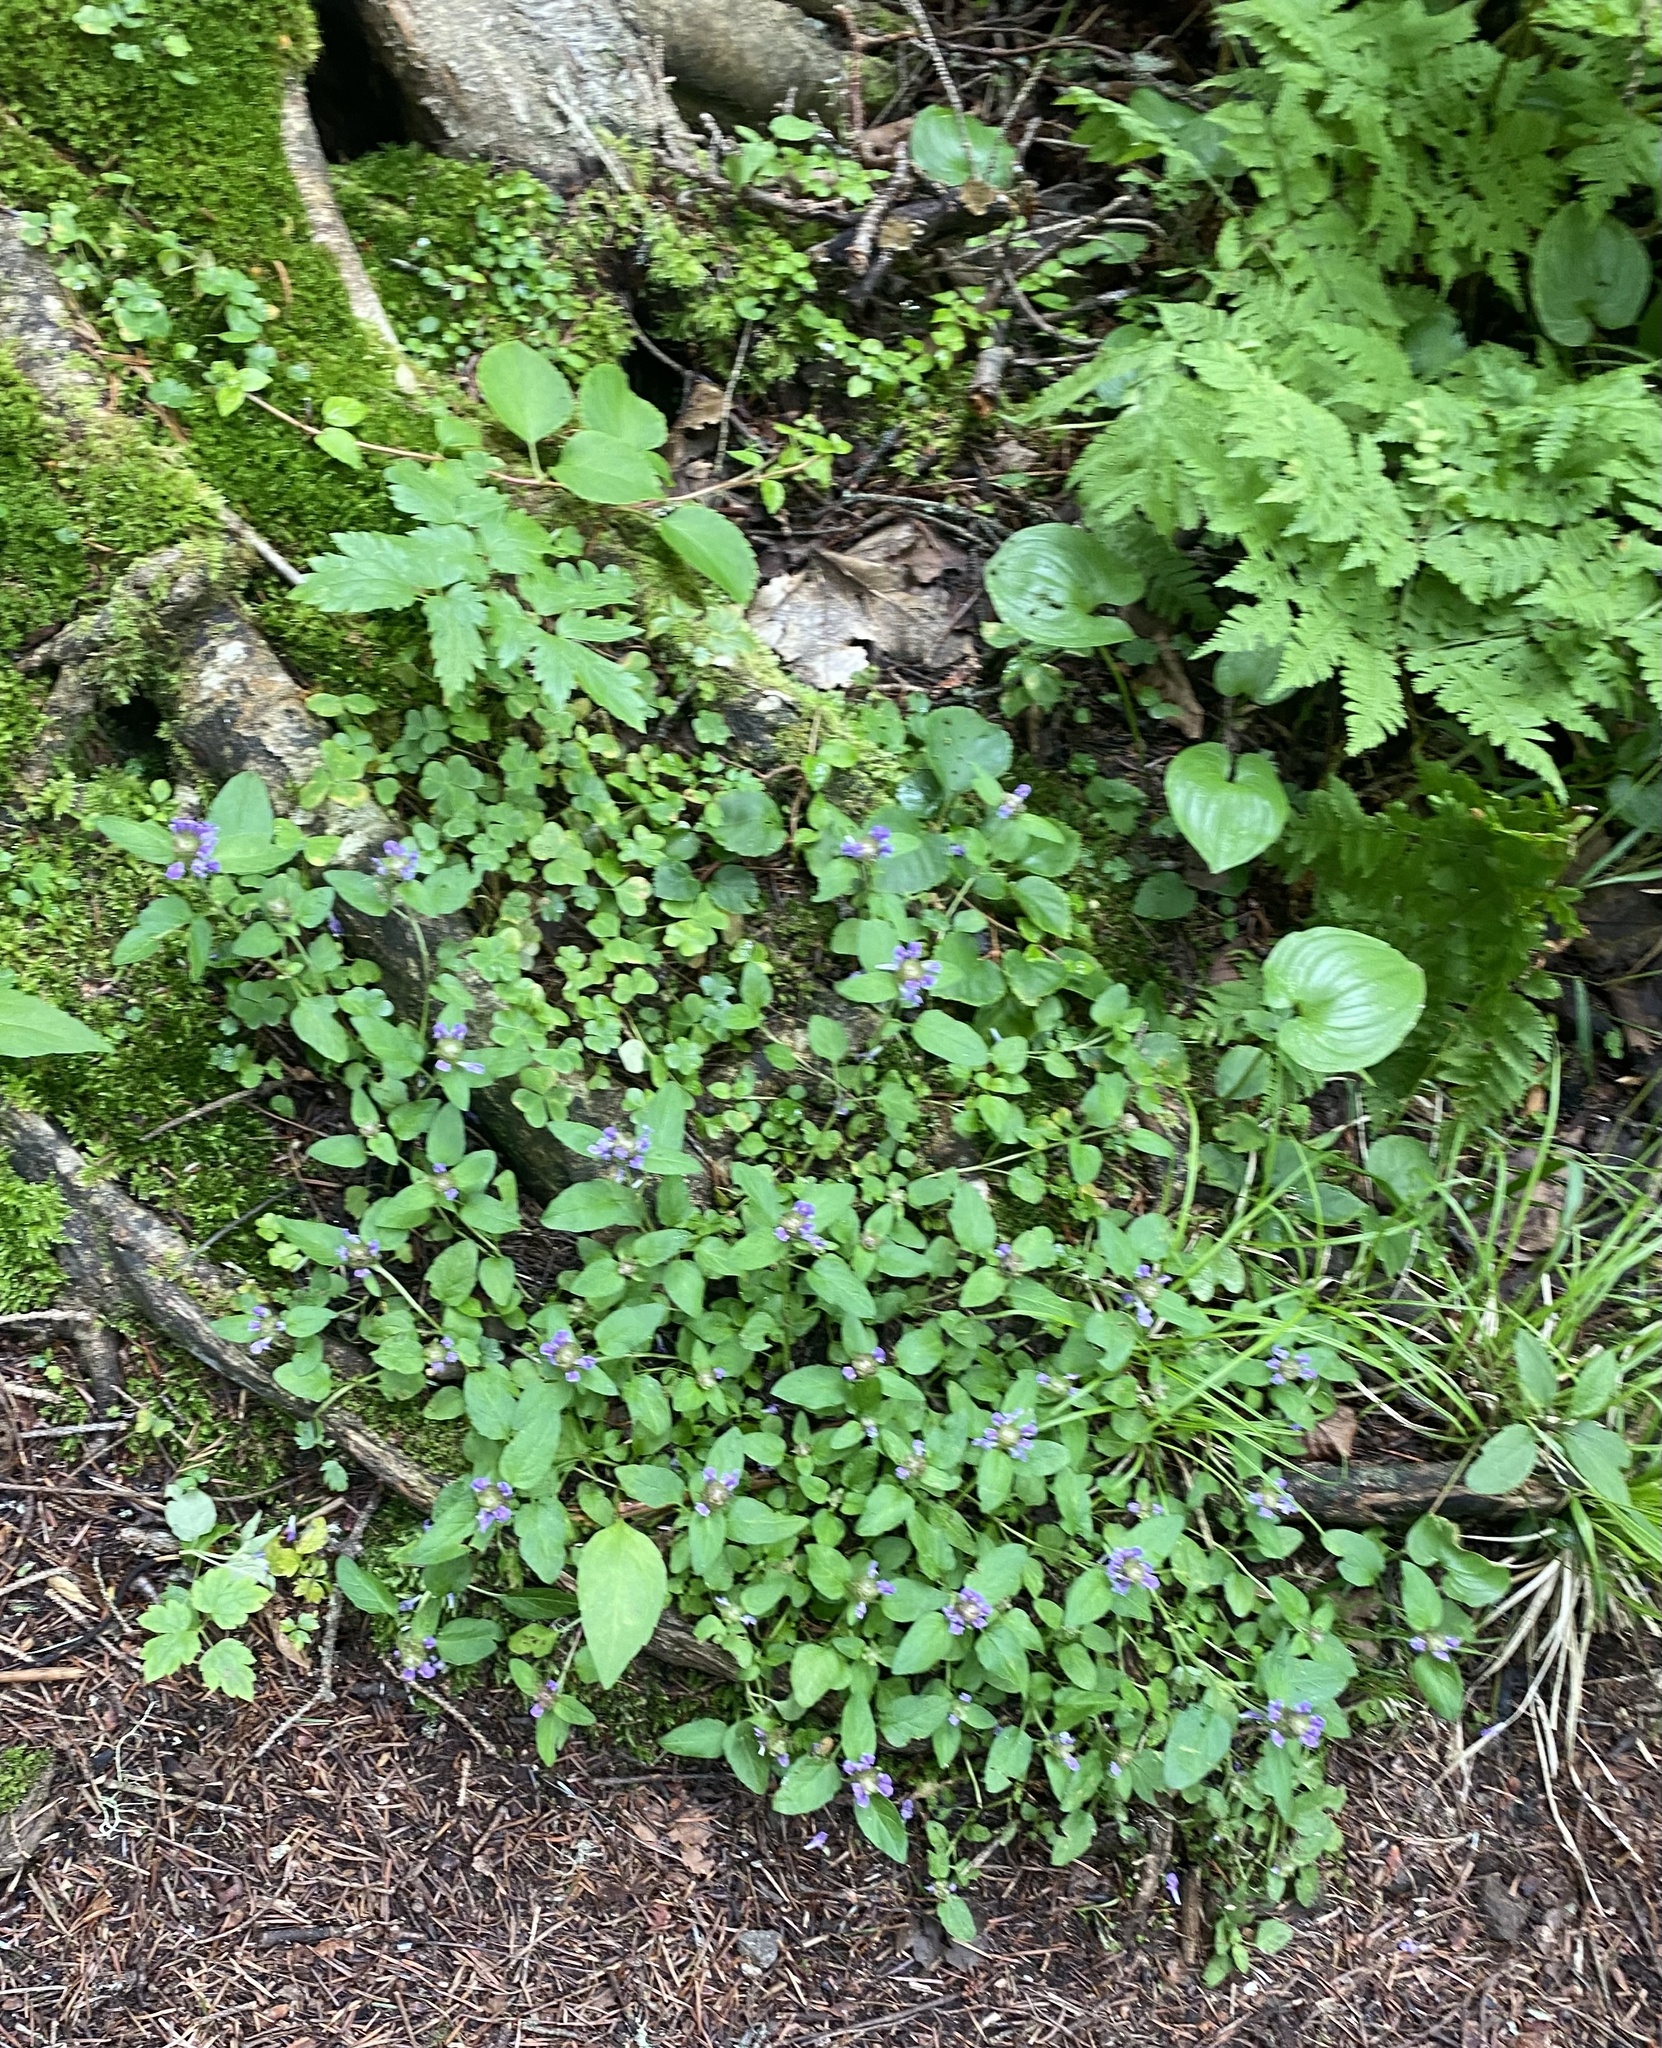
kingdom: Plantae
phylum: Tracheophyta
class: Magnoliopsida
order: Lamiales
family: Lamiaceae
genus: Prunella
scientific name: Prunella vulgaris
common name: Heal-all
